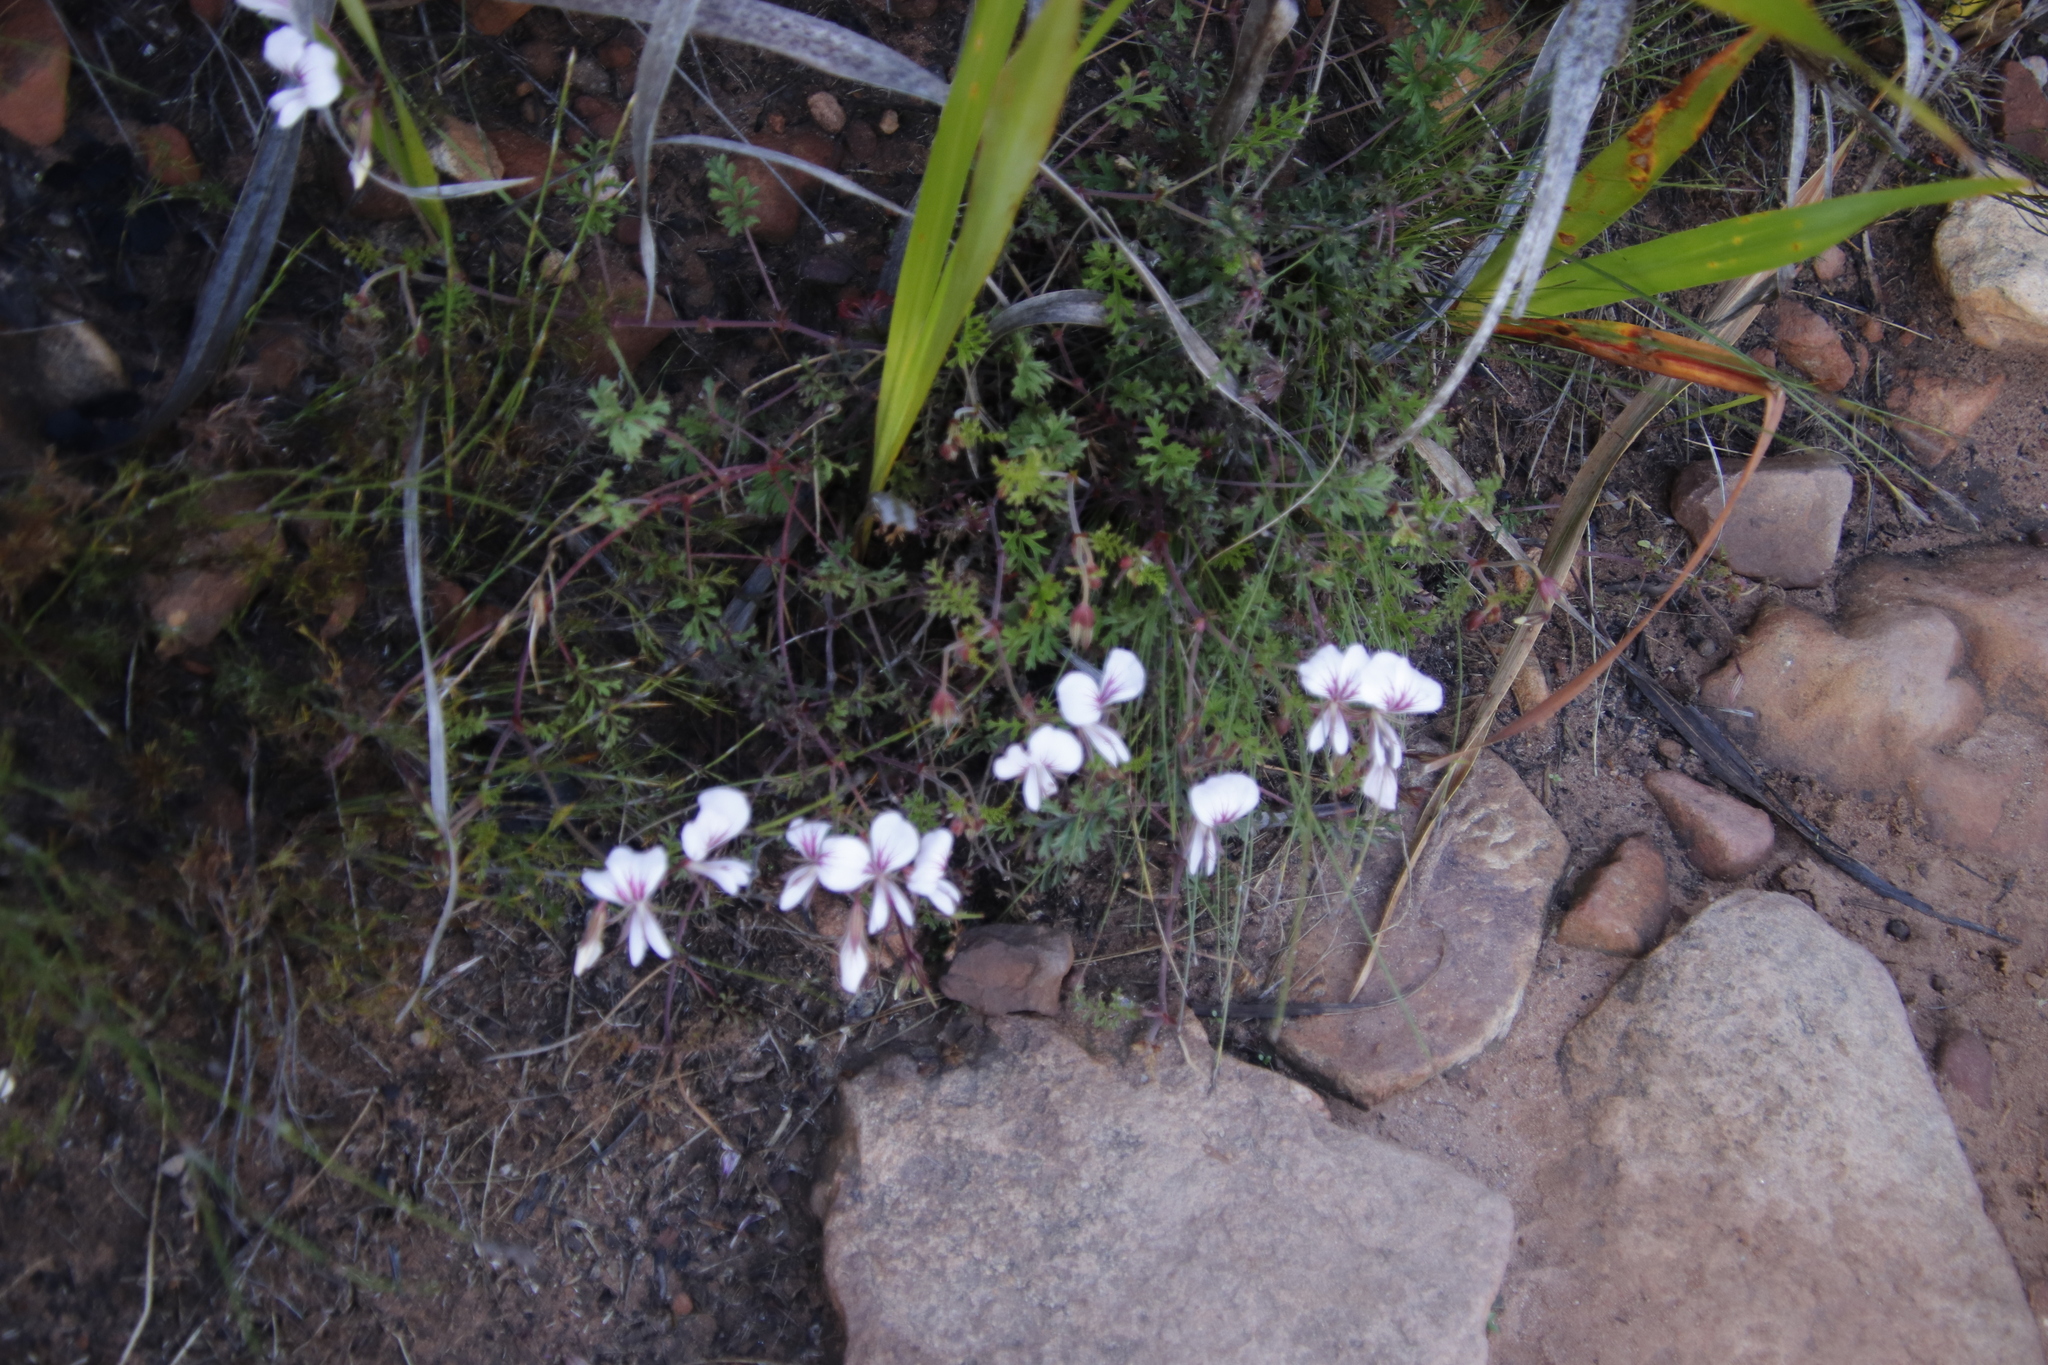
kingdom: Plantae
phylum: Tracheophyta
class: Magnoliopsida
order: Geraniales
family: Geraniaceae
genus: Pelargonium
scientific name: Pelargonium longicaule
